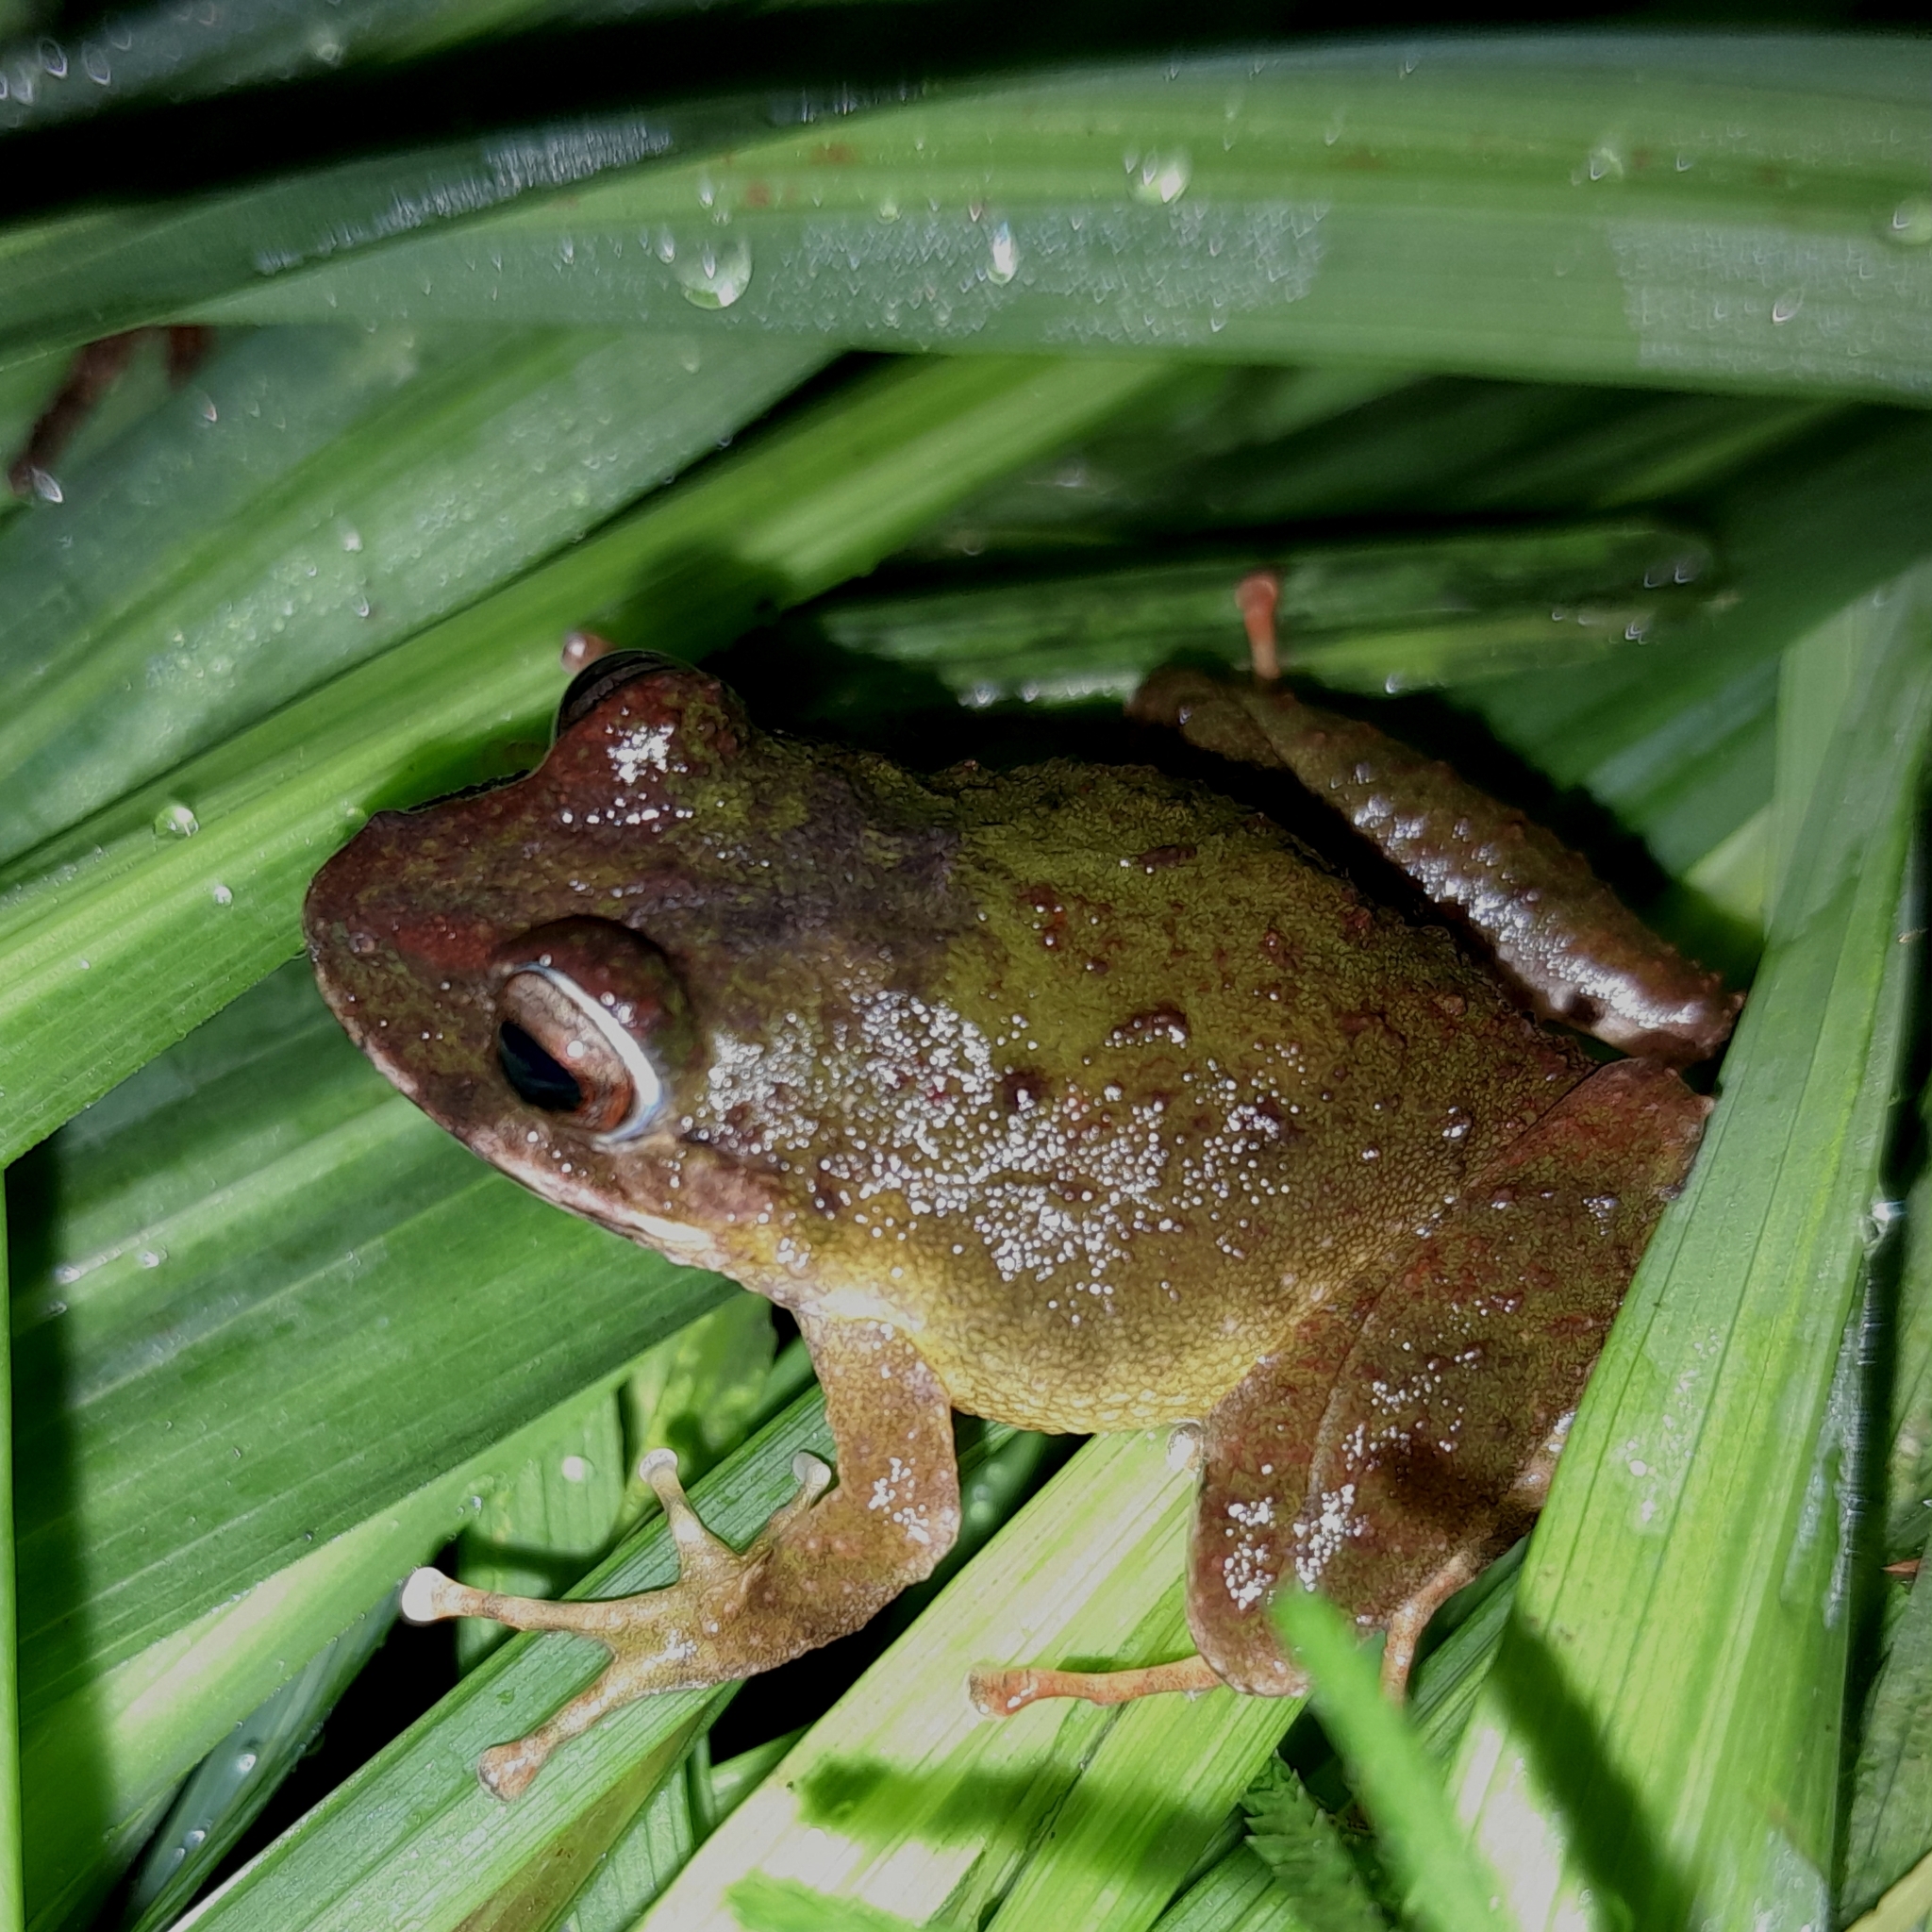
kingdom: Animalia
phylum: Chordata
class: Amphibia
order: Anura
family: Craugastoridae
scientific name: Craugastoridae
